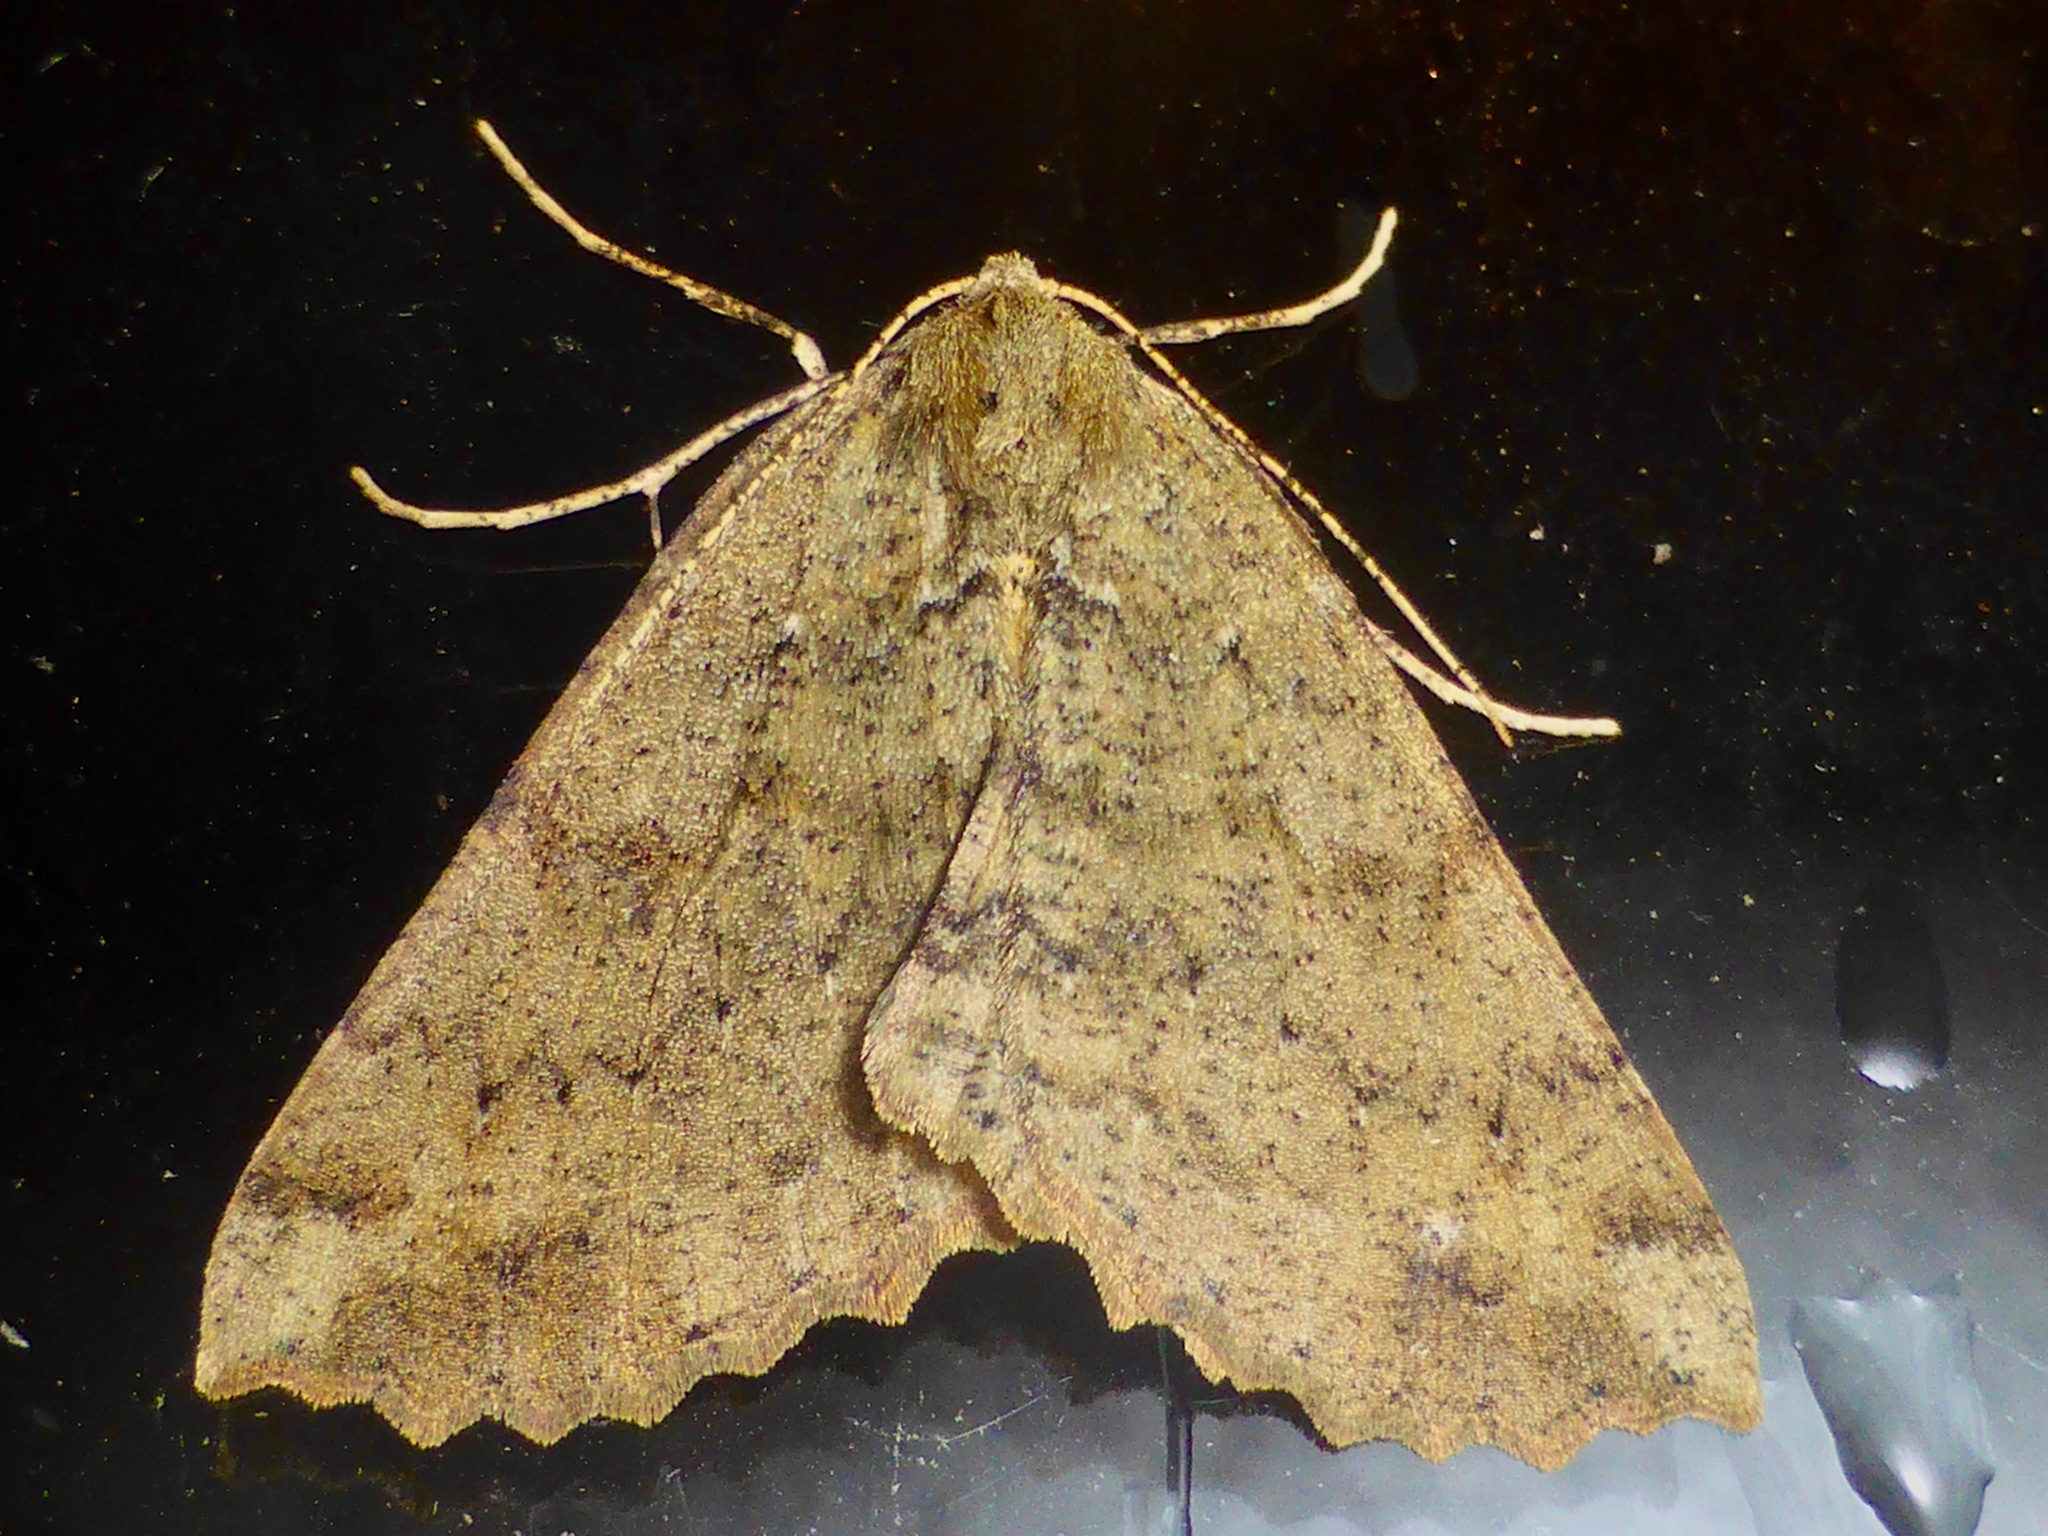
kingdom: Animalia
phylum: Arthropoda
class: Insecta
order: Lepidoptera
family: Geometridae
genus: Cleora
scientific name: Cleora scriptaria
